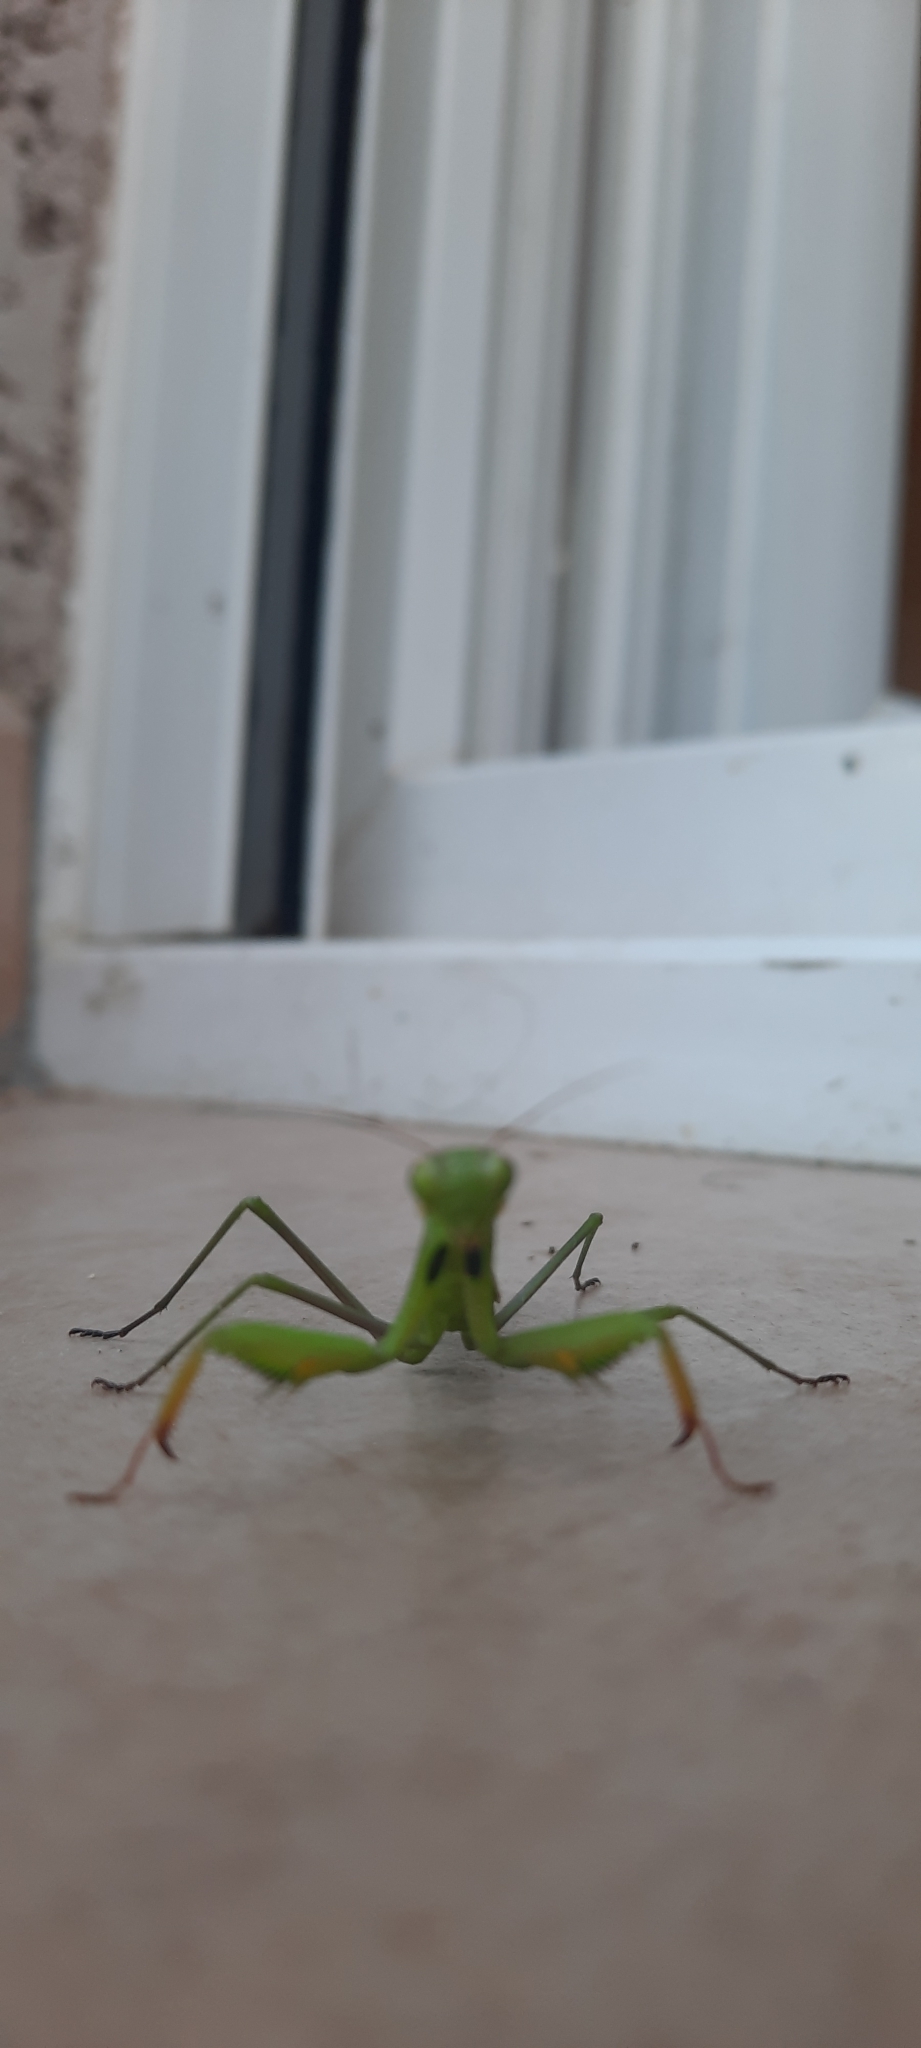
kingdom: Animalia
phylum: Arthropoda
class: Insecta
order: Mantodea
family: Mantidae
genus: Mantis
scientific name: Mantis religiosa
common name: Praying mantis
